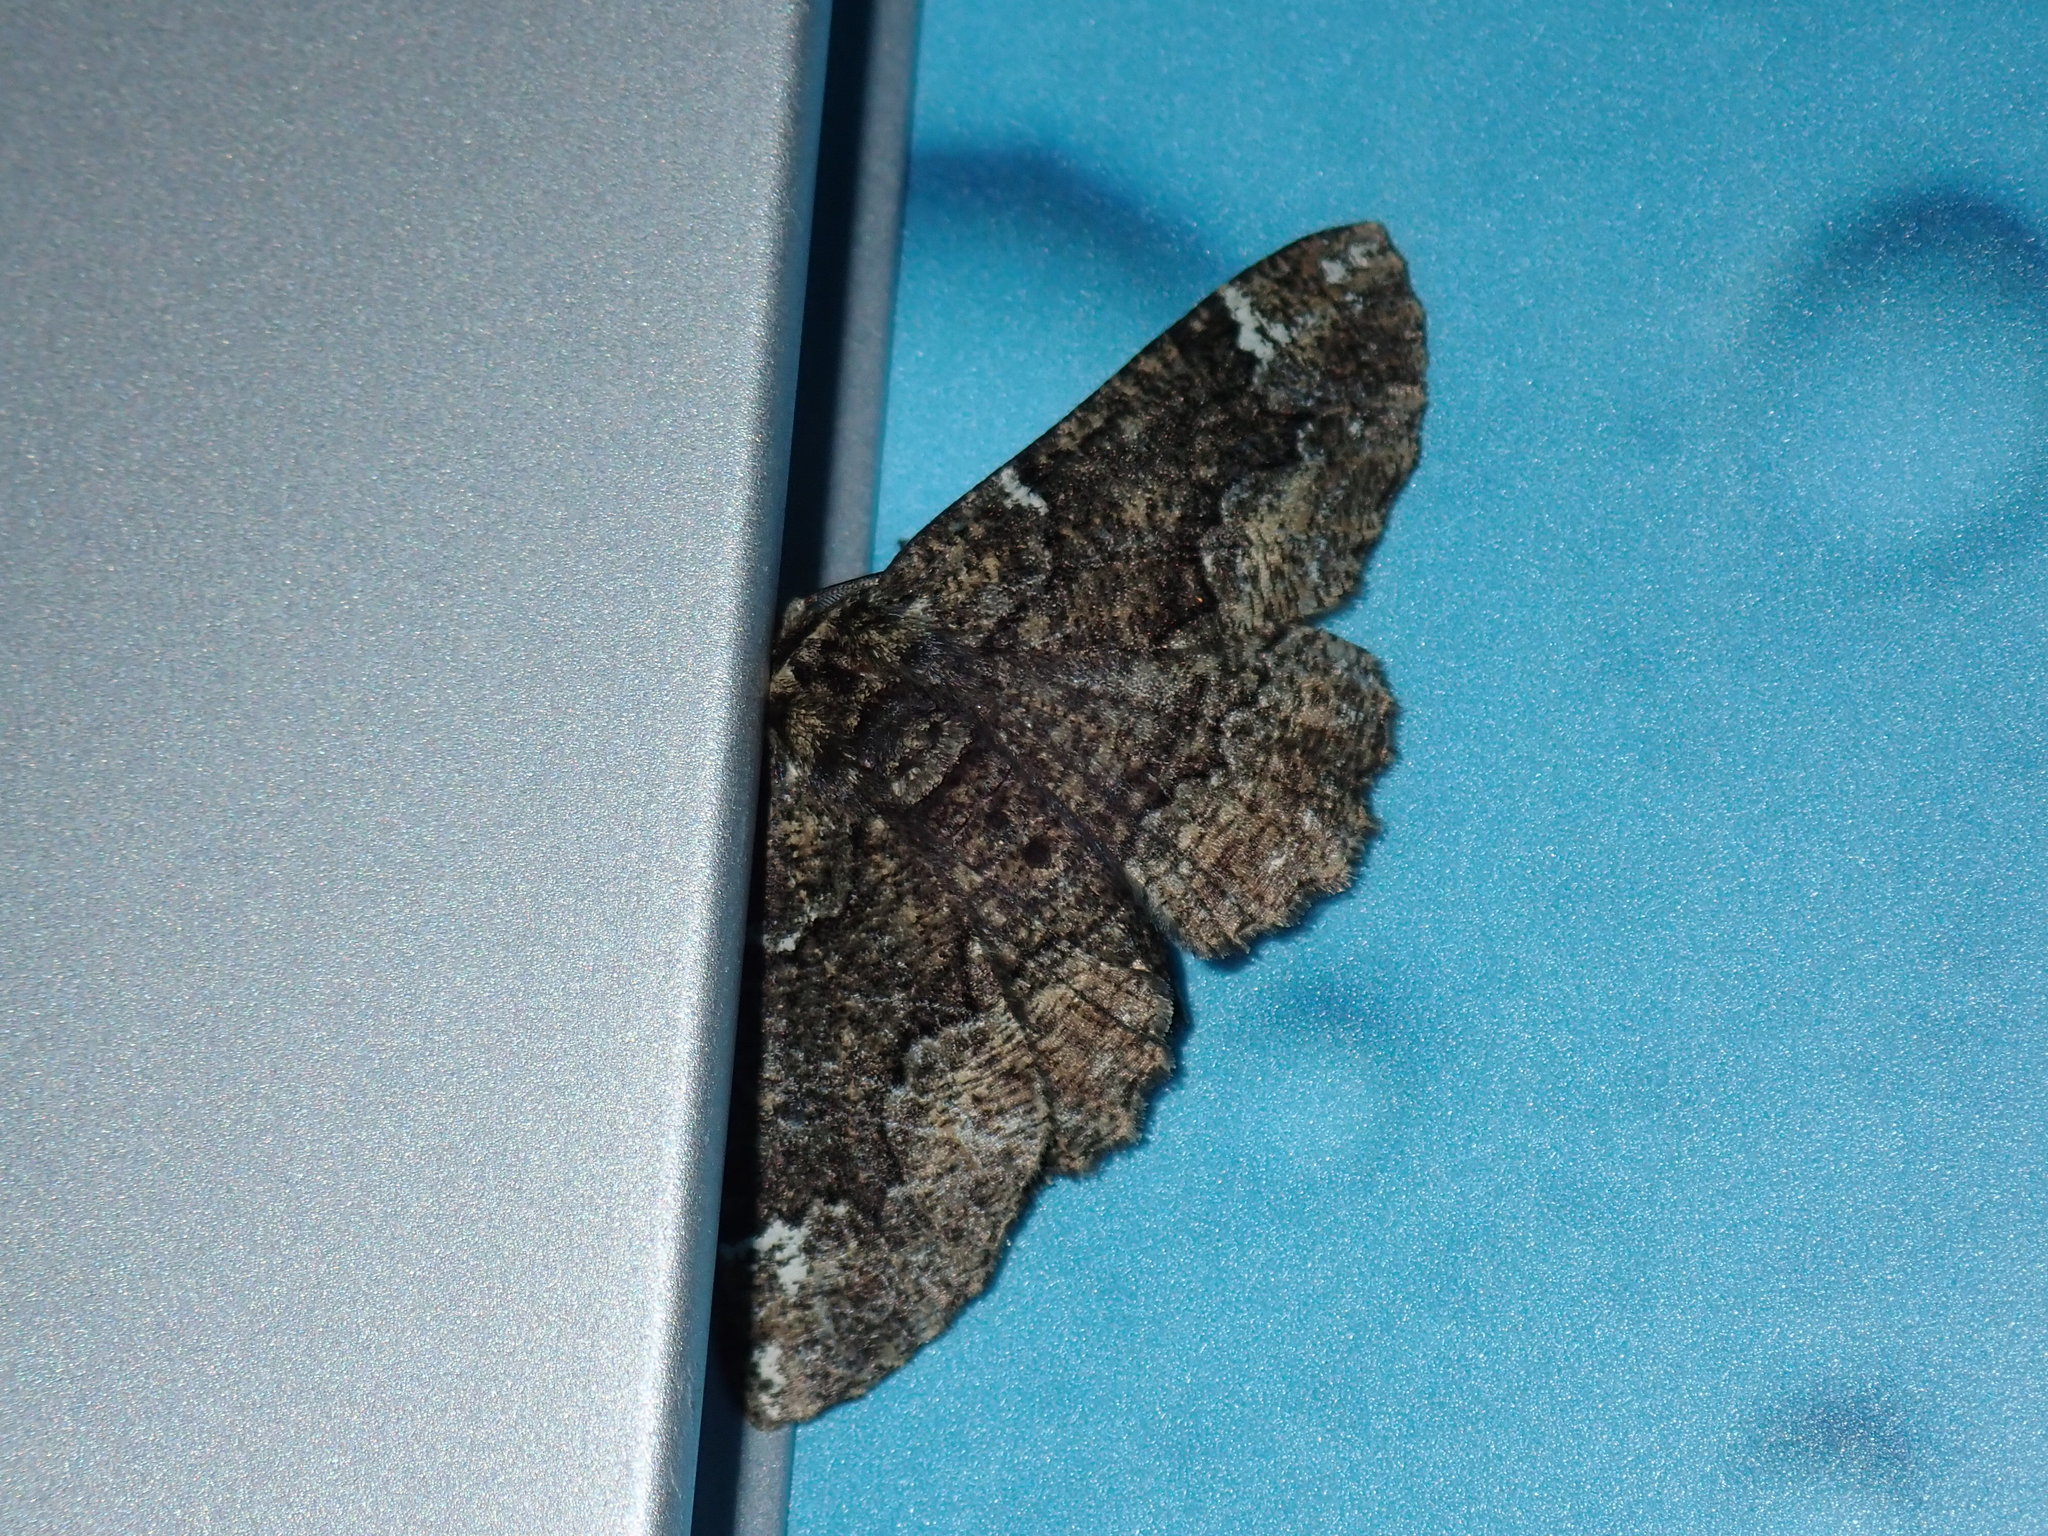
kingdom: Animalia
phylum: Arthropoda
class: Insecta
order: Lepidoptera
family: Geometridae
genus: Phaeoura
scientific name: Phaeoura quernaria
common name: Oak beauty
